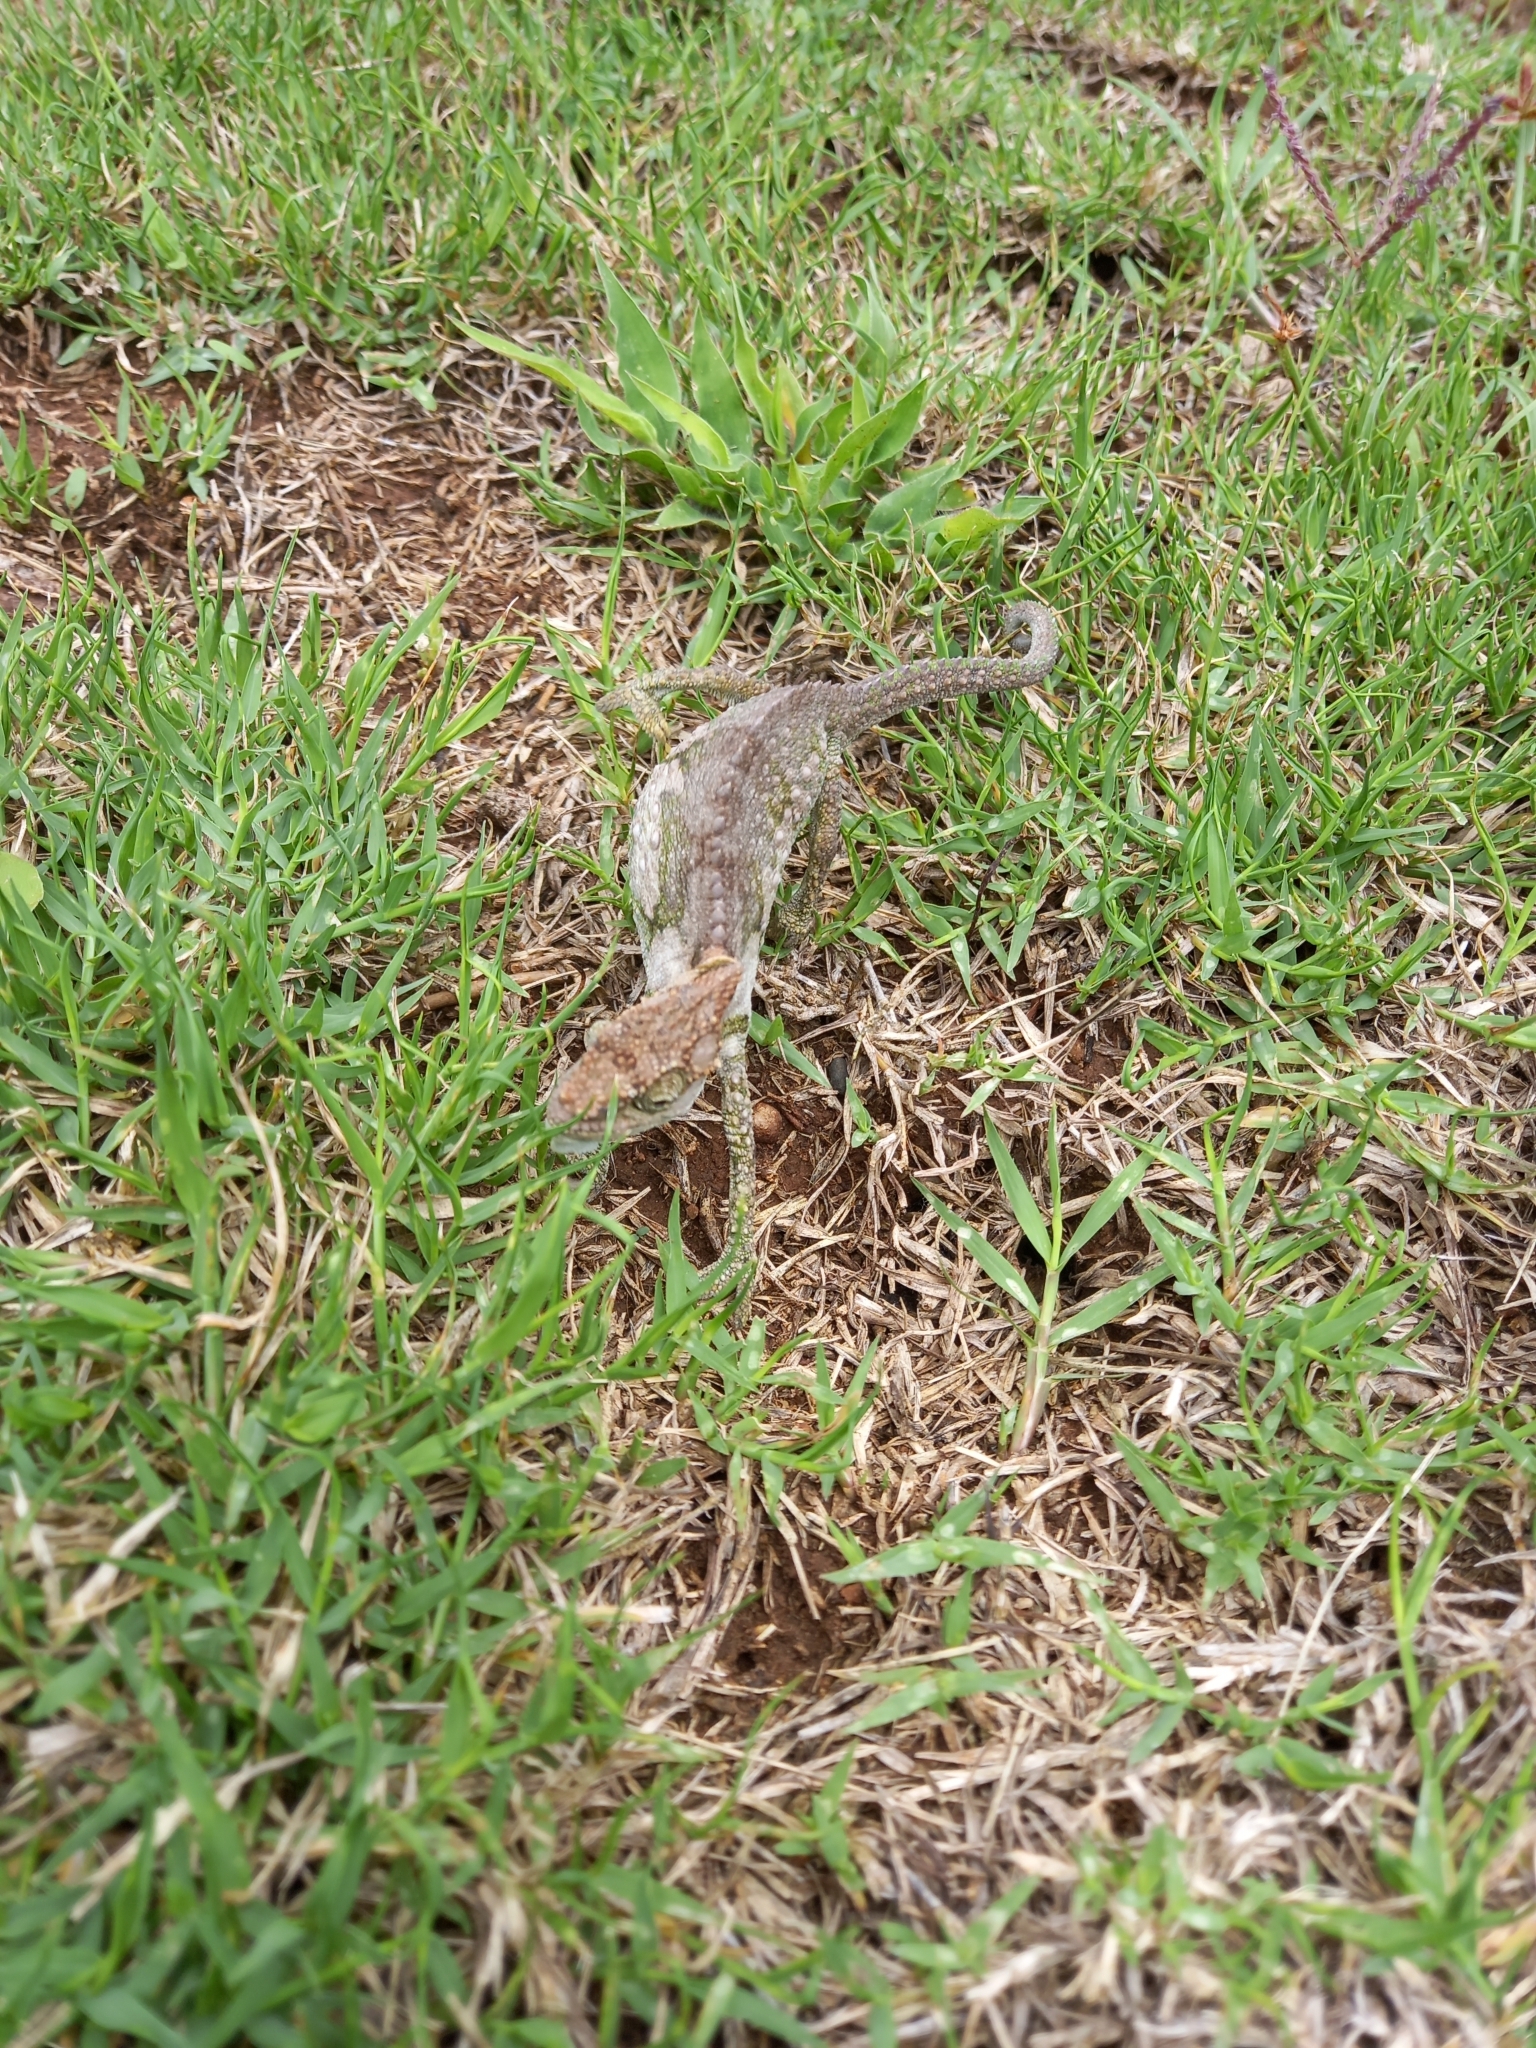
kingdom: Animalia
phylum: Chordata
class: Squamata
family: Chamaeleonidae
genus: Bradypodion
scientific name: Bradypodion ventrale
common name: Eastern cape dwarf chameleon
